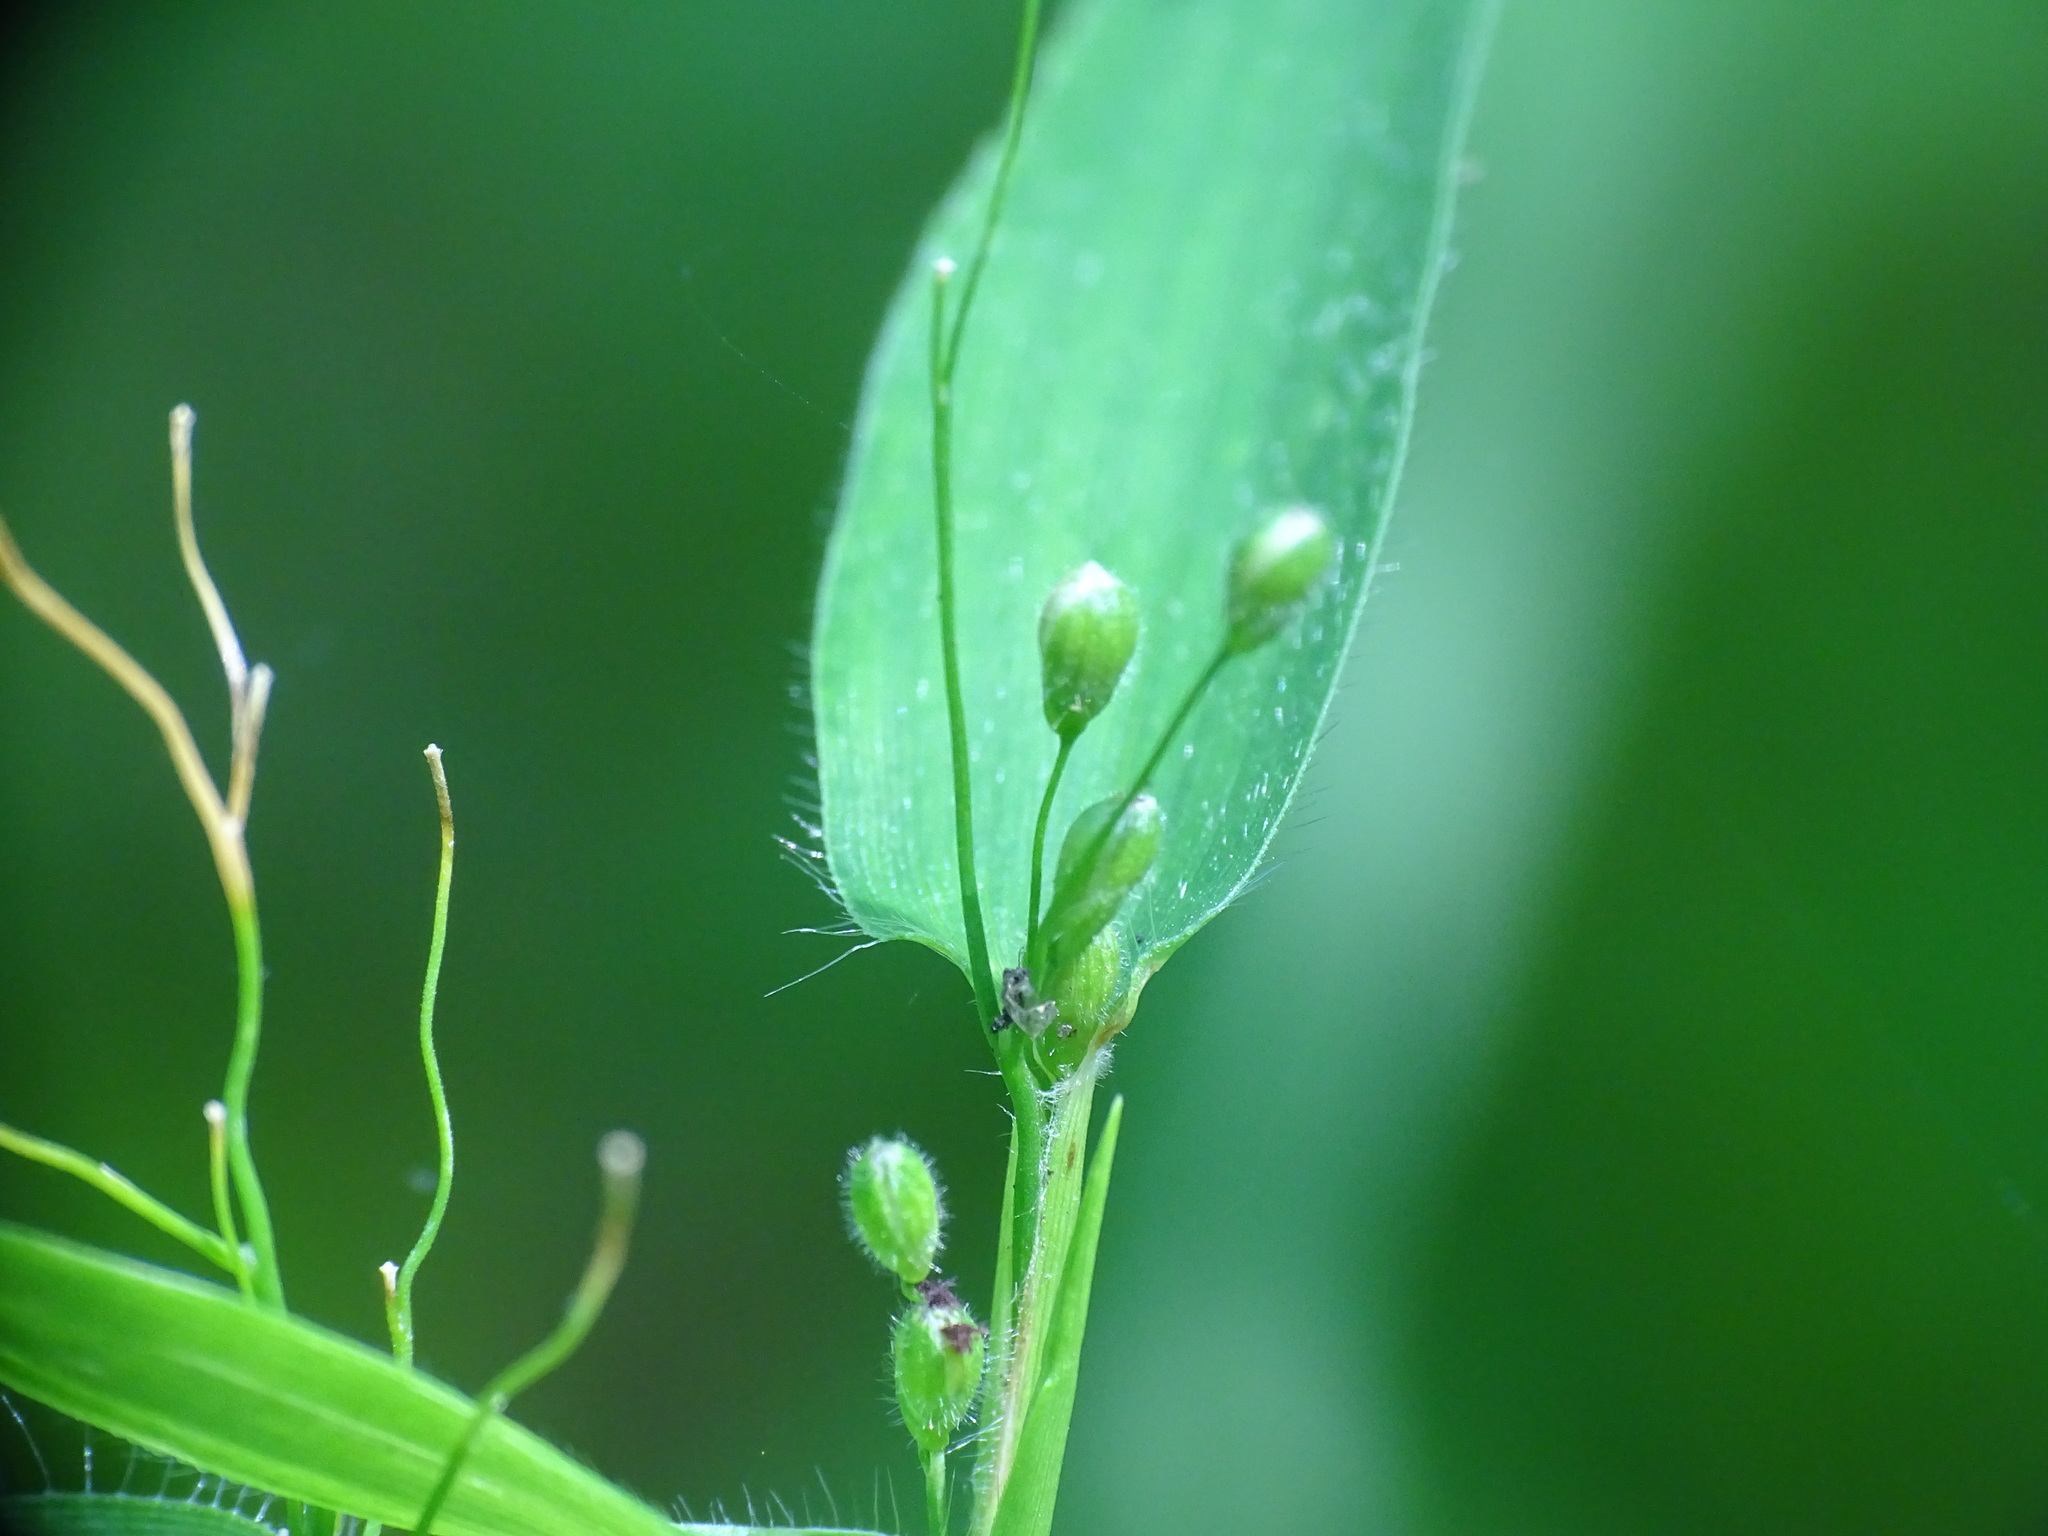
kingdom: Plantae
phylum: Tracheophyta
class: Liliopsida
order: Poales
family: Poaceae
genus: Dichanthelium
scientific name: Dichanthelium latifolium
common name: Broad-leaved panicgrass
